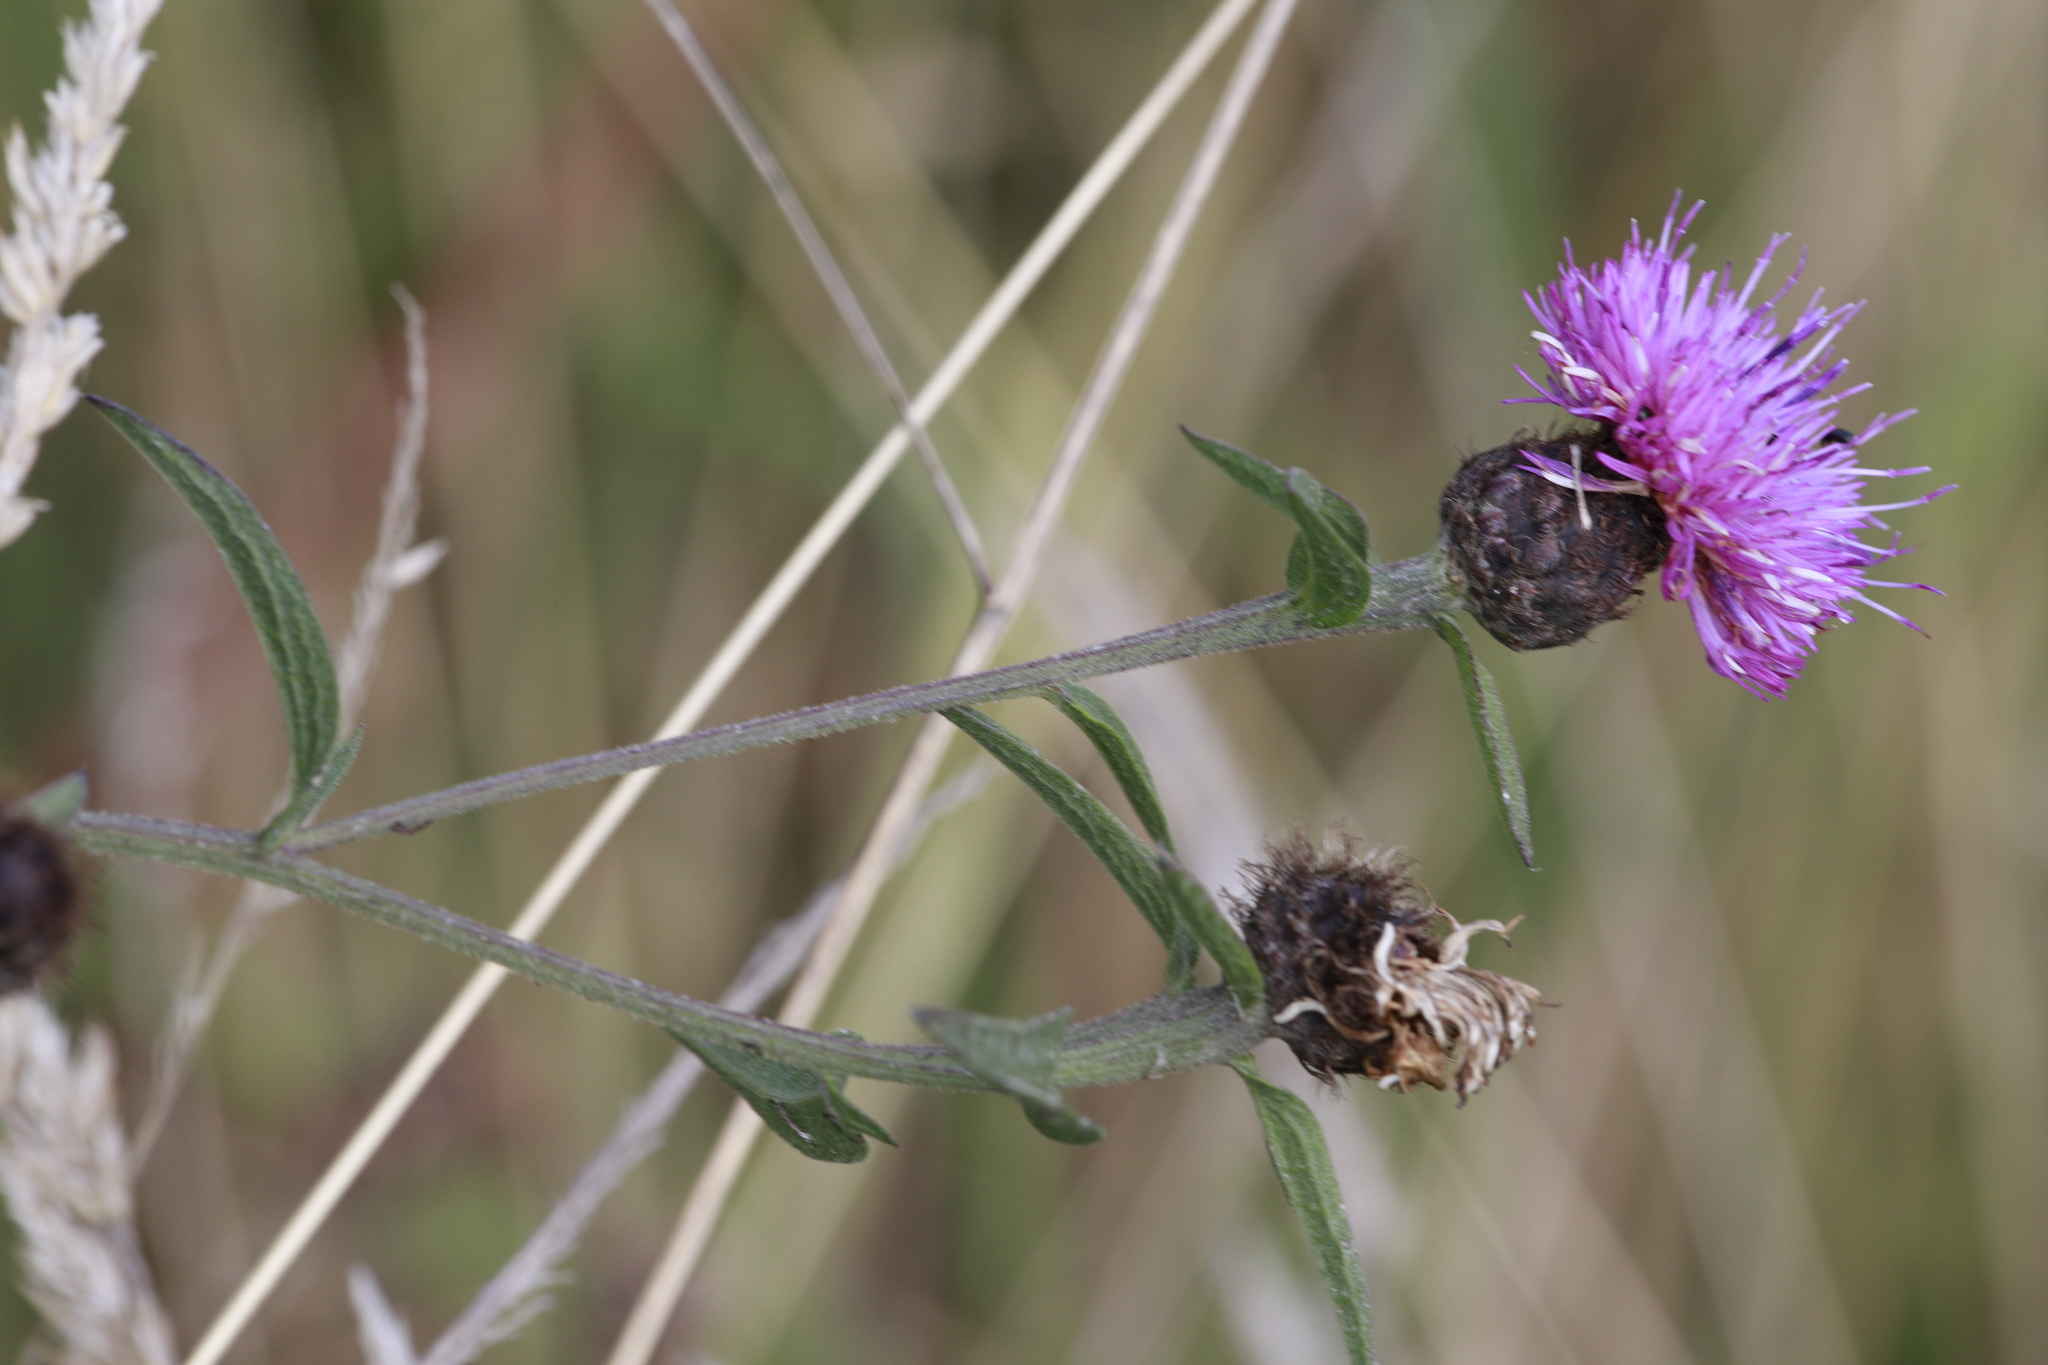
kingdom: Plantae
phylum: Tracheophyta
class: Magnoliopsida
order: Asterales
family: Asteraceae
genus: Centaurea
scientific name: Centaurea nigra
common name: Lesser knapweed
